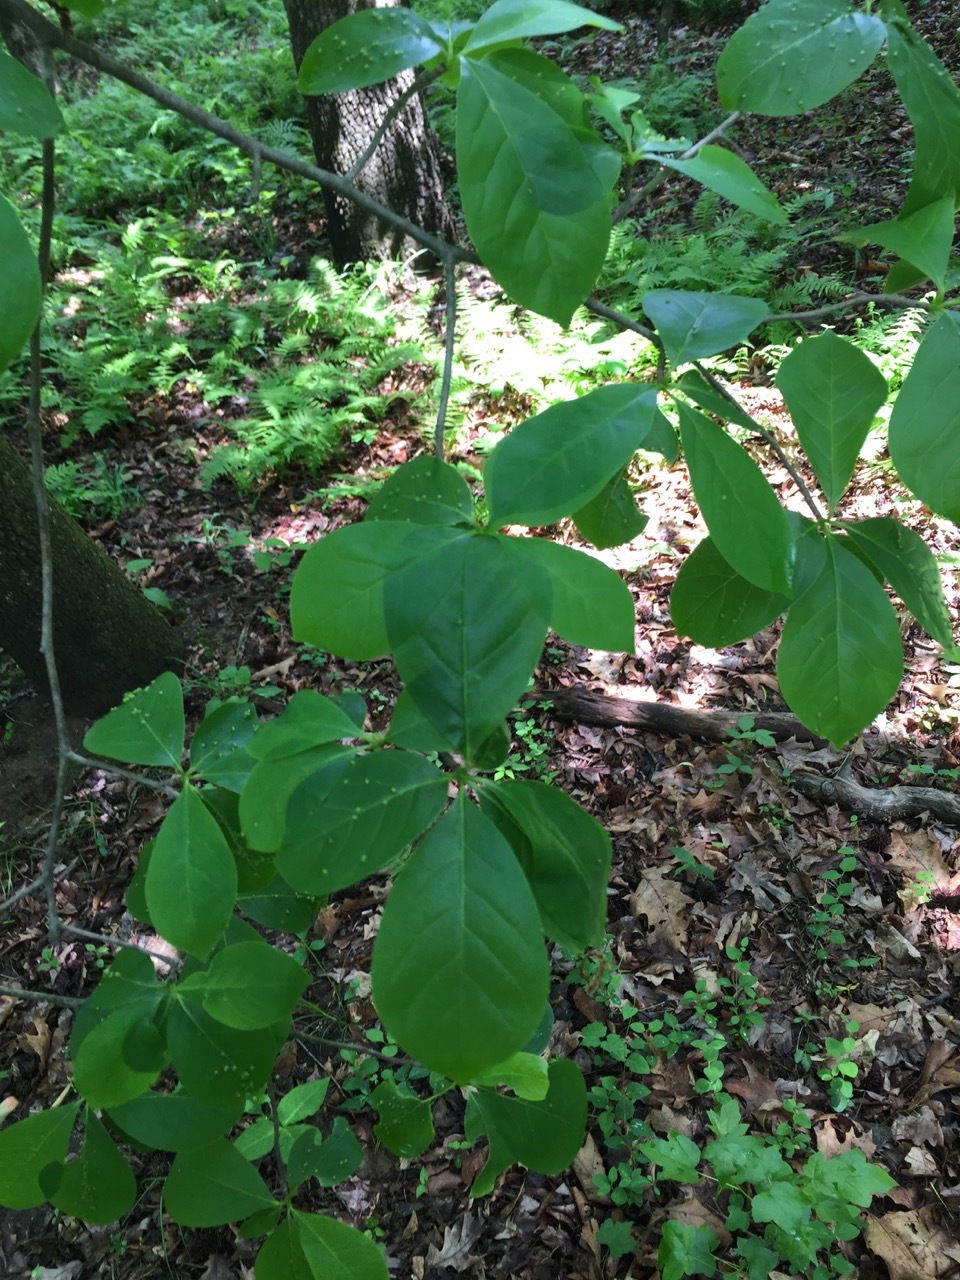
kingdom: Plantae
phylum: Tracheophyta
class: Magnoliopsida
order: Cornales
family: Nyssaceae
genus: Nyssa
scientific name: Nyssa sylvatica
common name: Black tupelo
